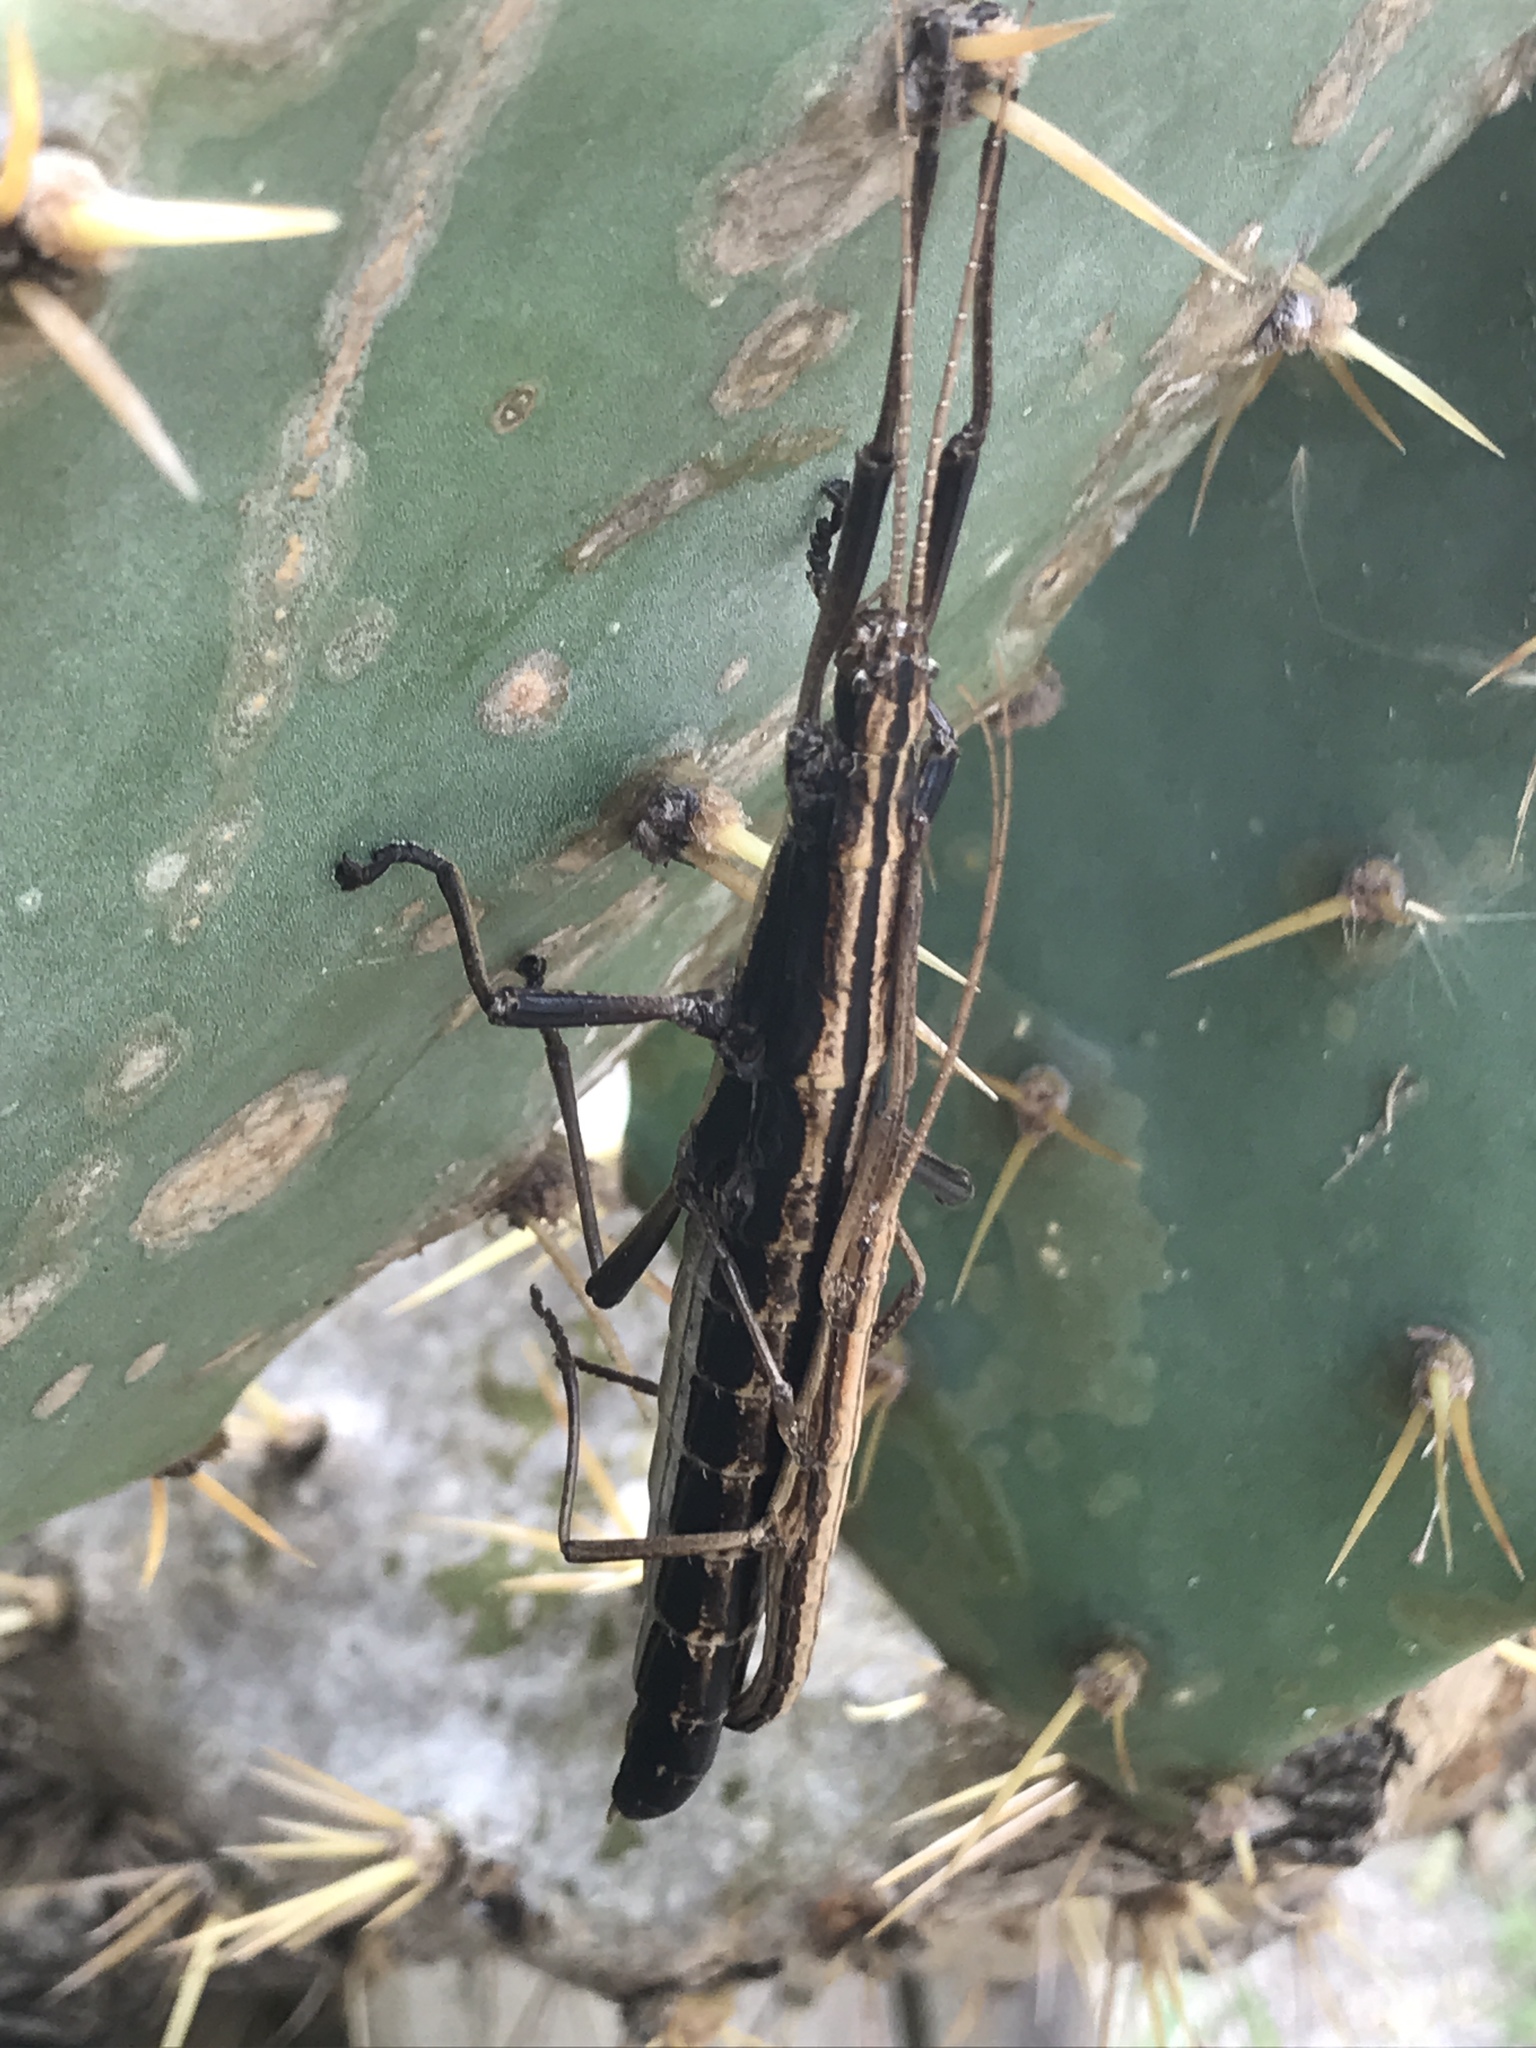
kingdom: Animalia
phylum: Arthropoda
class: Insecta
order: Phasmida
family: Pseudophasmatidae
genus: Anisomorpha
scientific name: Anisomorpha buprestoides
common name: Florida stick insect
